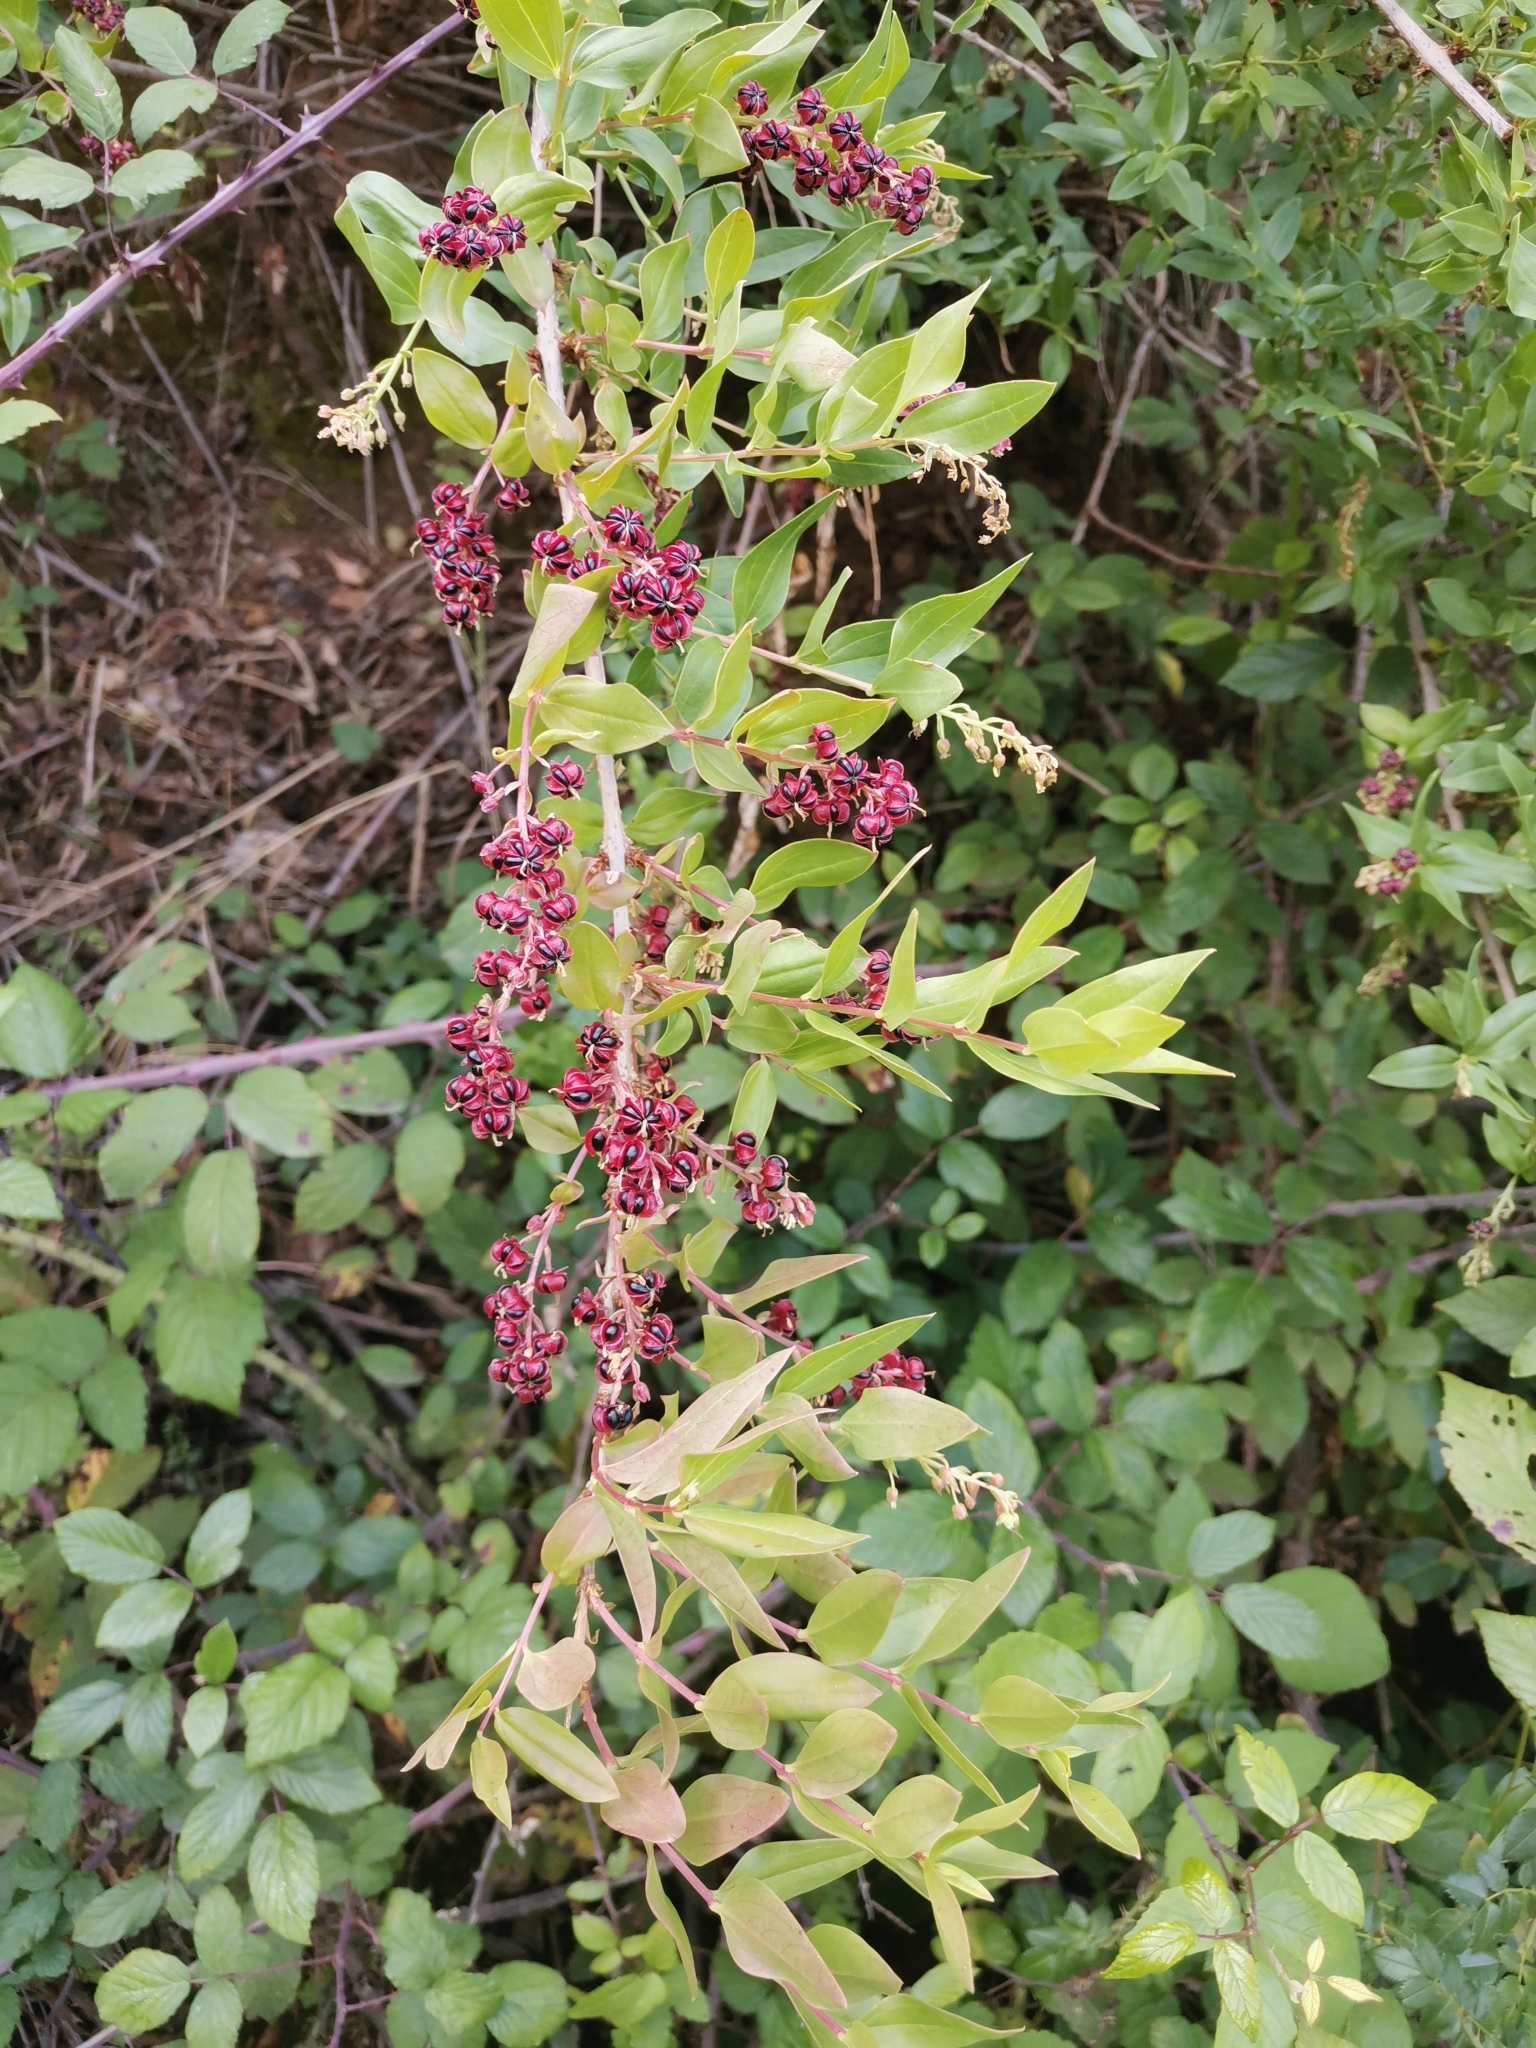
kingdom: Plantae
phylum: Tracheophyta
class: Magnoliopsida
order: Cucurbitales
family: Coriariaceae
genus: Coriaria
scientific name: Coriaria myrtifolia
